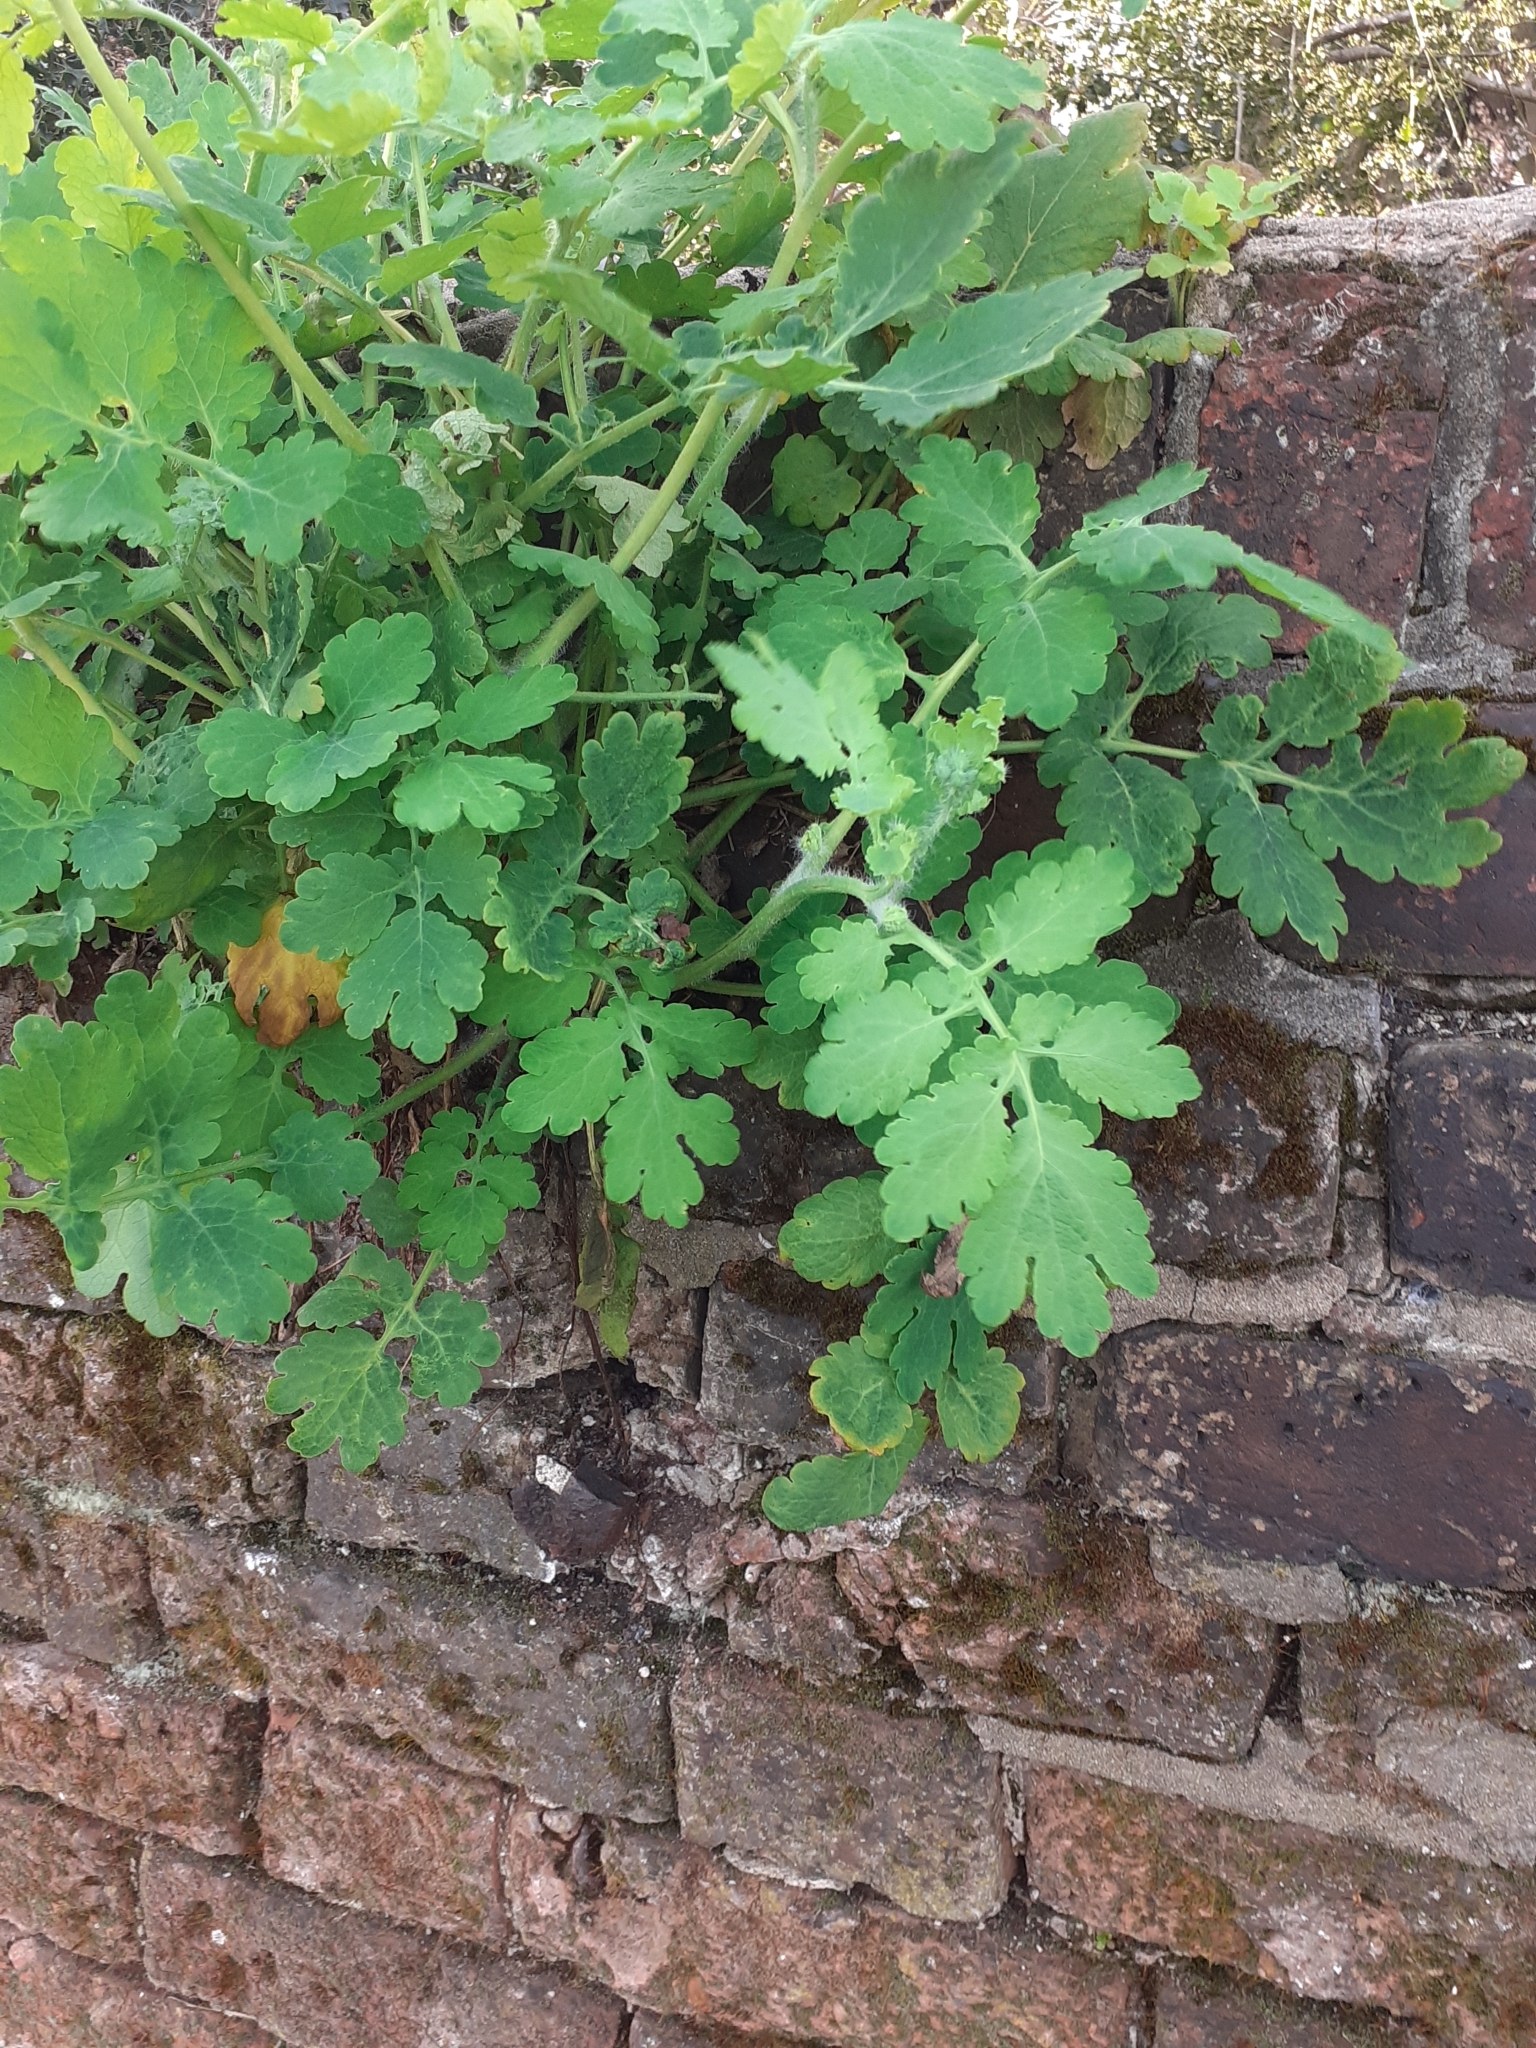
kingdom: Plantae
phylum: Tracheophyta
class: Magnoliopsida
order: Ranunculales
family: Papaveraceae
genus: Chelidonium
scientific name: Chelidonium majus
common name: Greater celandine
